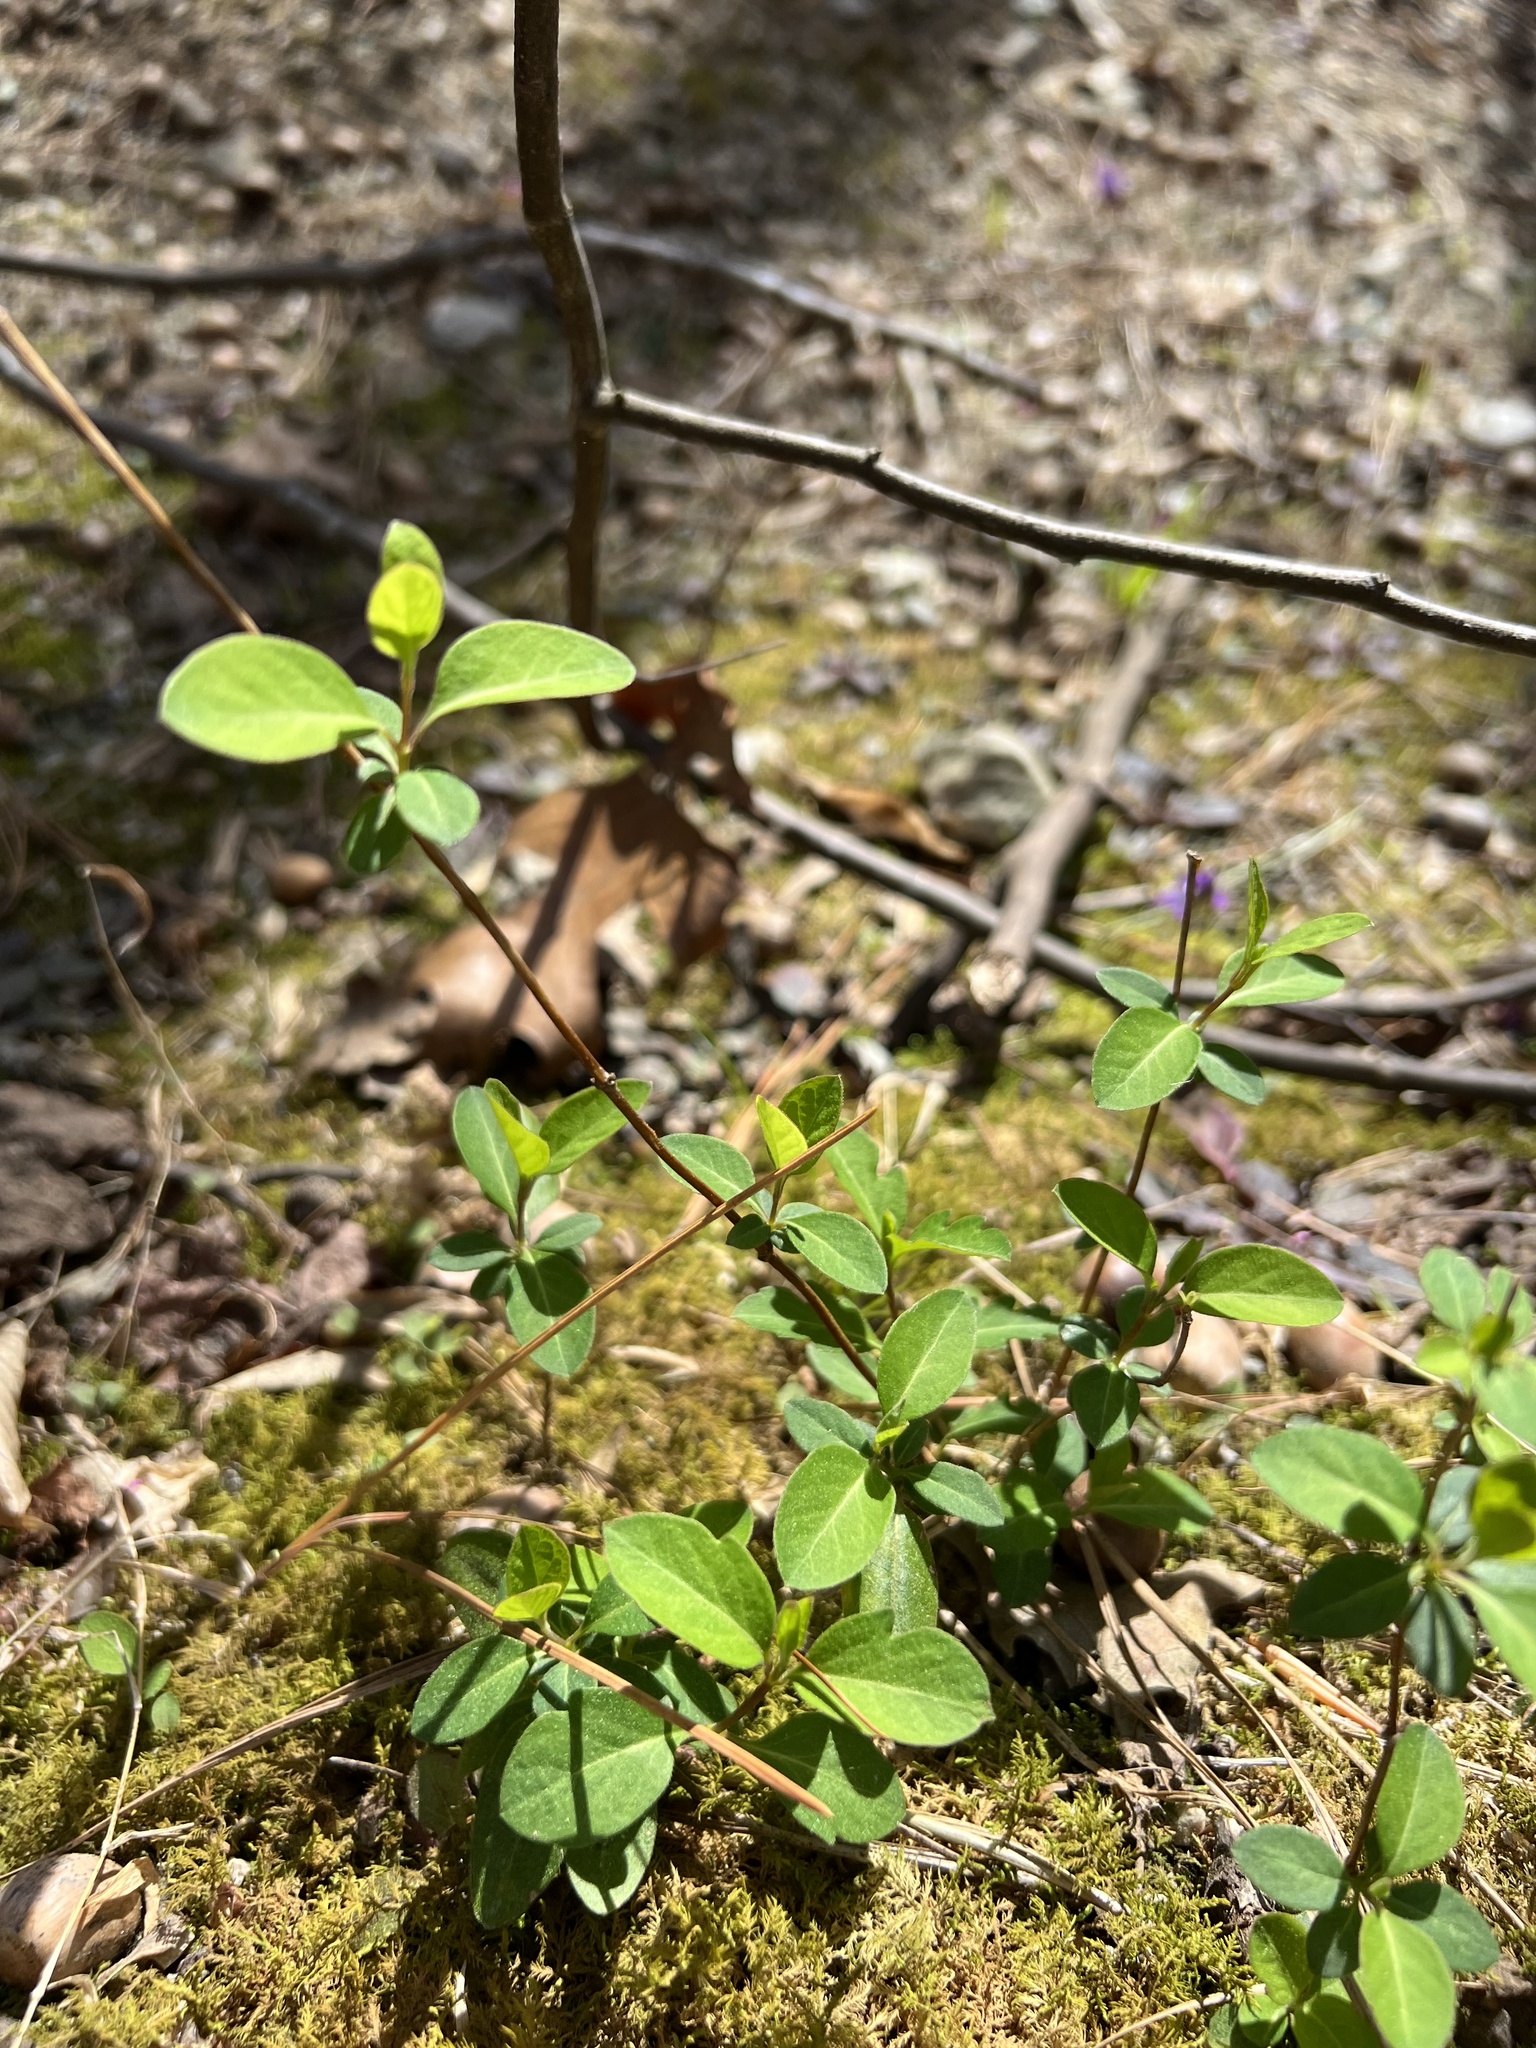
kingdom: Plantae
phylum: Tracheophyta
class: Magnoliopsida
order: Dipsacales
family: Caprifoliaceae
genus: Lonicera
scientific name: Lonicera japonica
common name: Japanese honeysuckle
